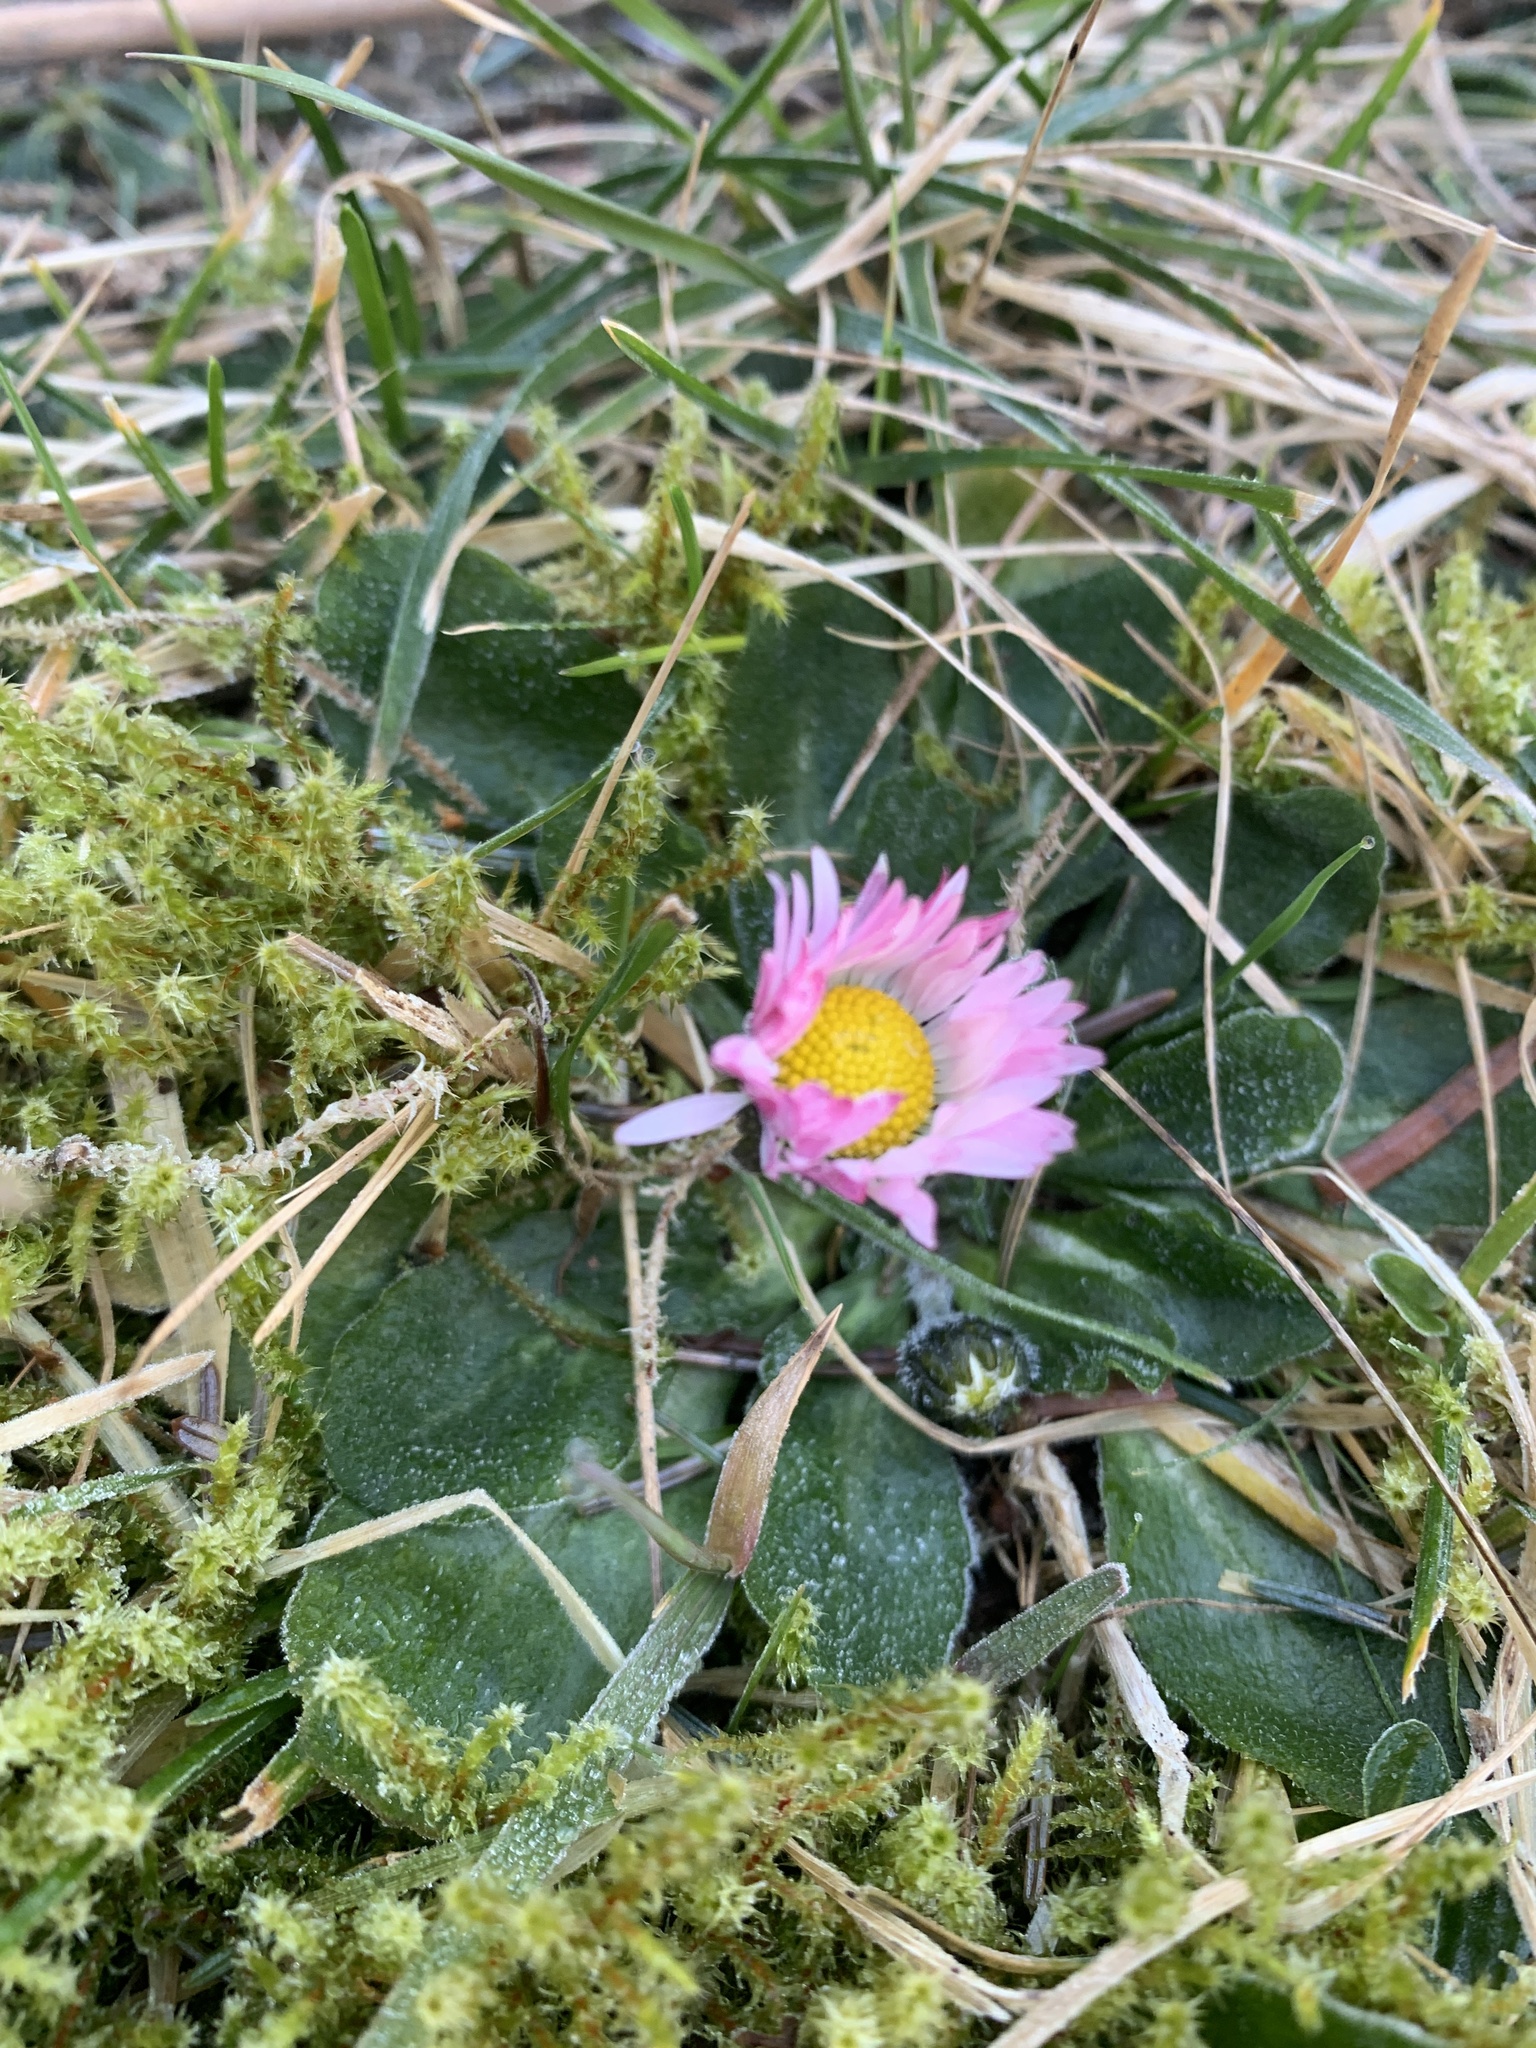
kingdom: Plantae
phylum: Tracheophyta
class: Magnoliopsida
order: Asterales
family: Asteraceae
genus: Bellis
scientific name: Bellis perennis
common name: Lawndaisy
